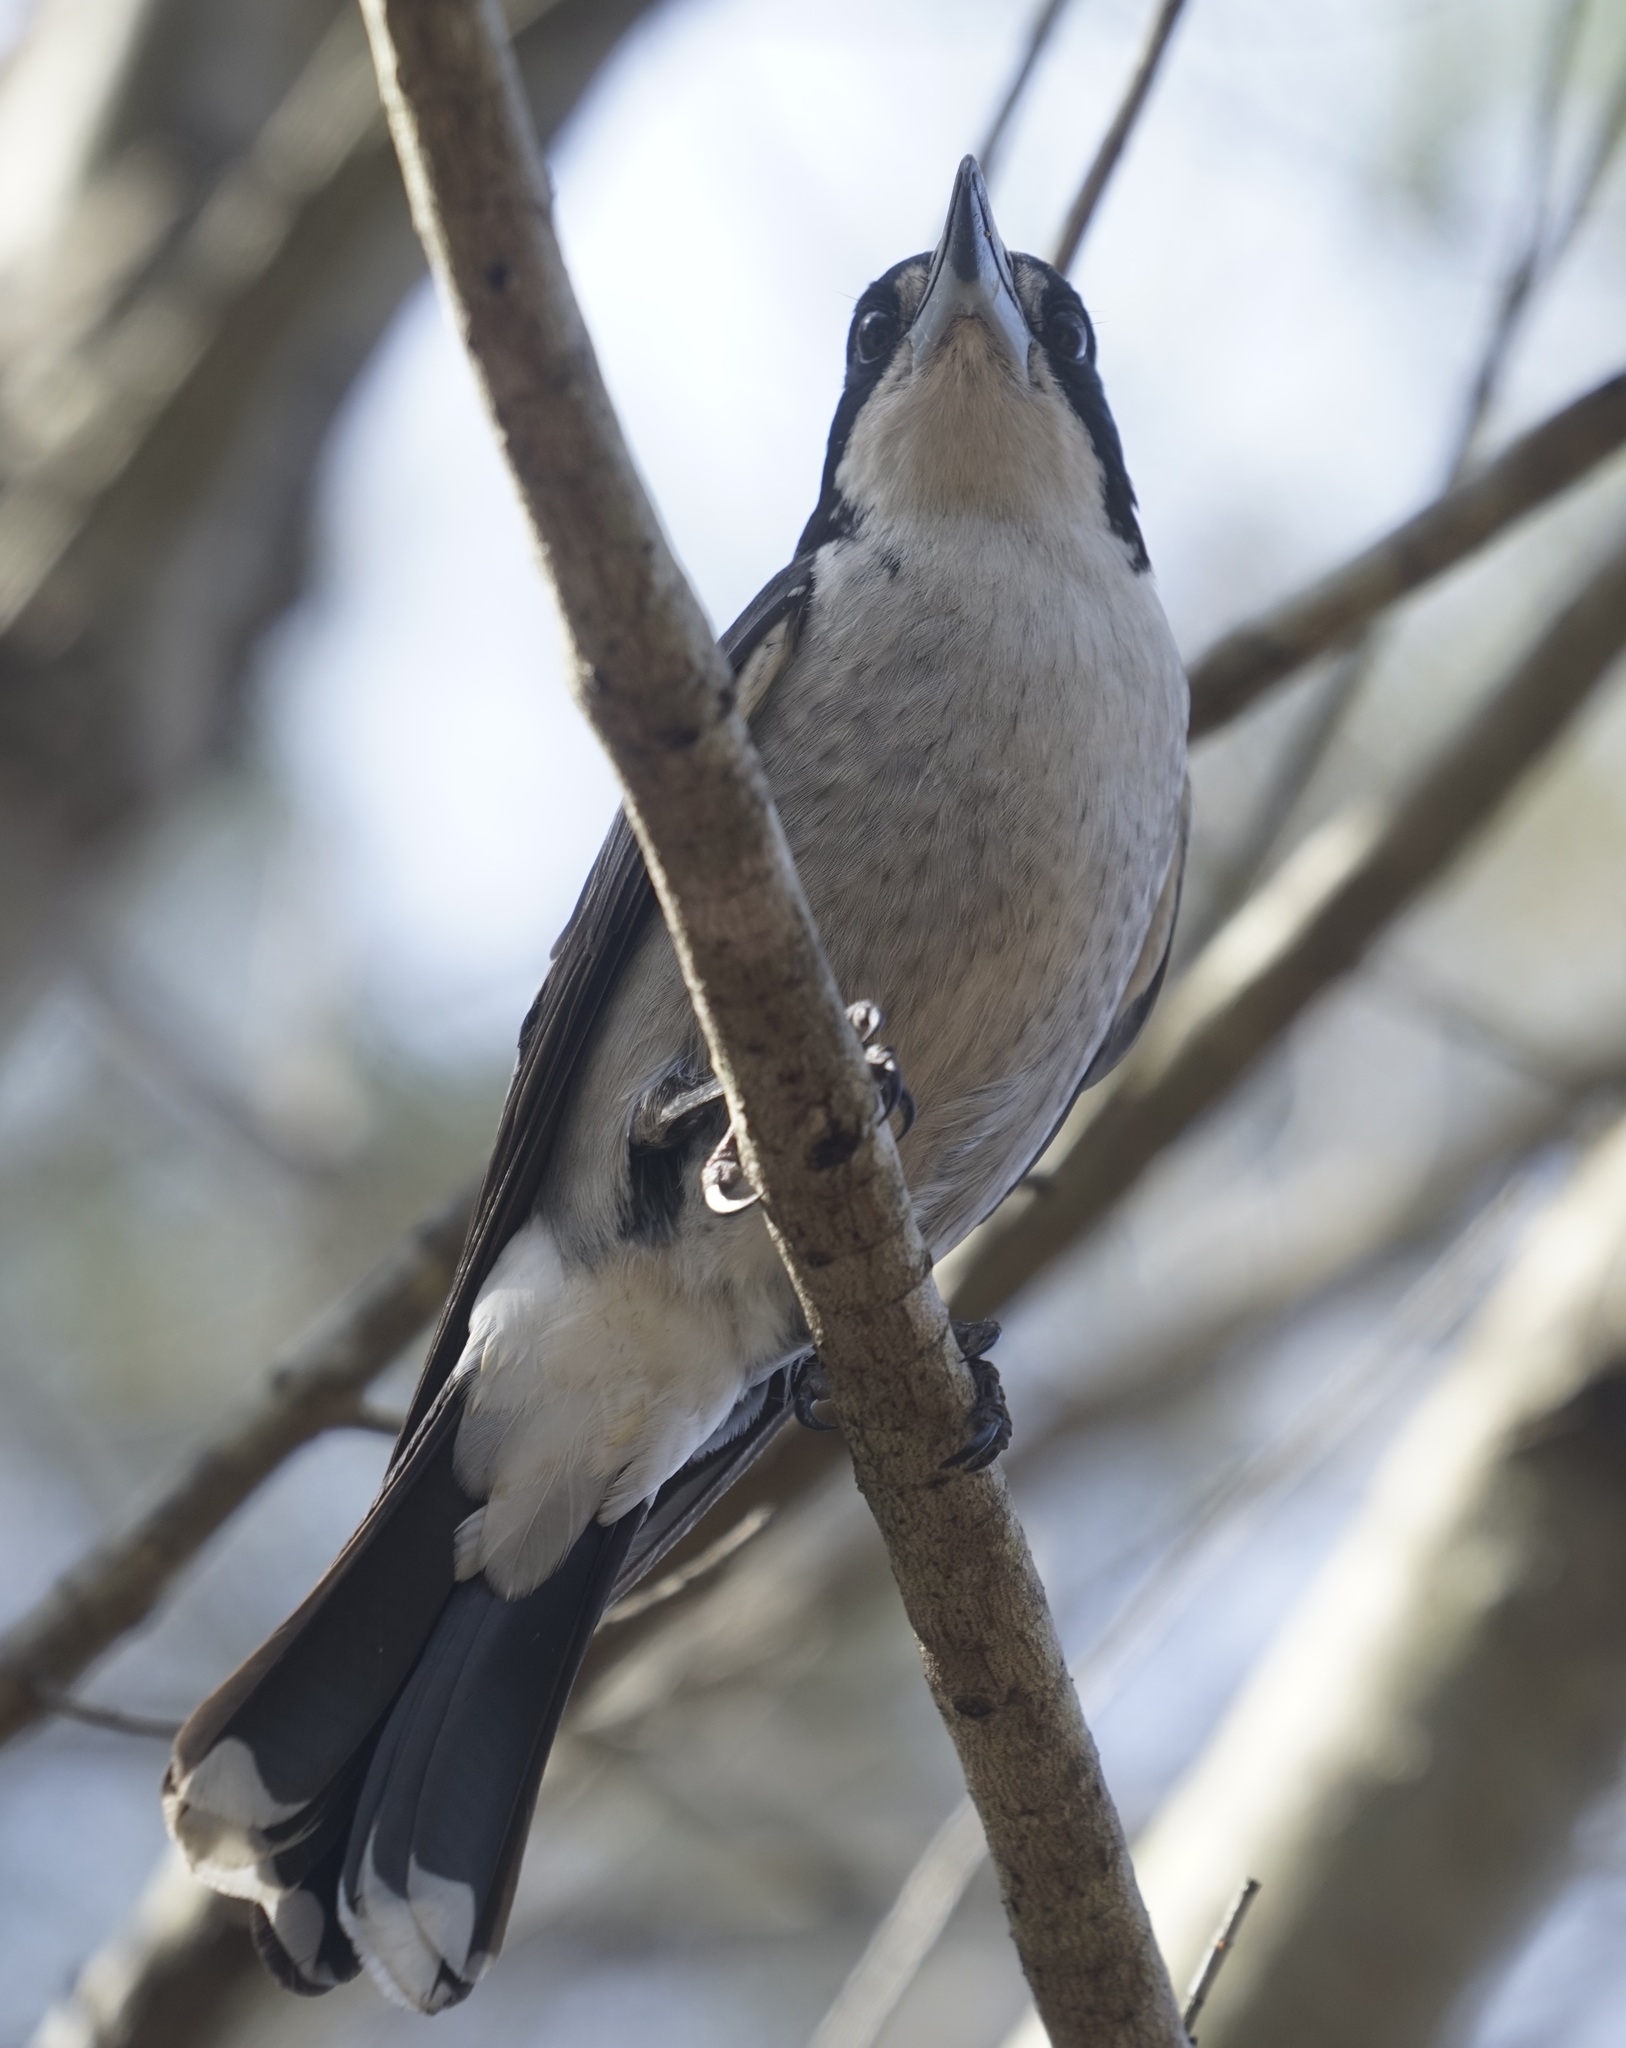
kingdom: Animalia
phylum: Chordata
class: Aves
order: Passeriformes
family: Cracticidae
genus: Cracticus
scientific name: Cracticus torquatus
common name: Grey butcherbird
